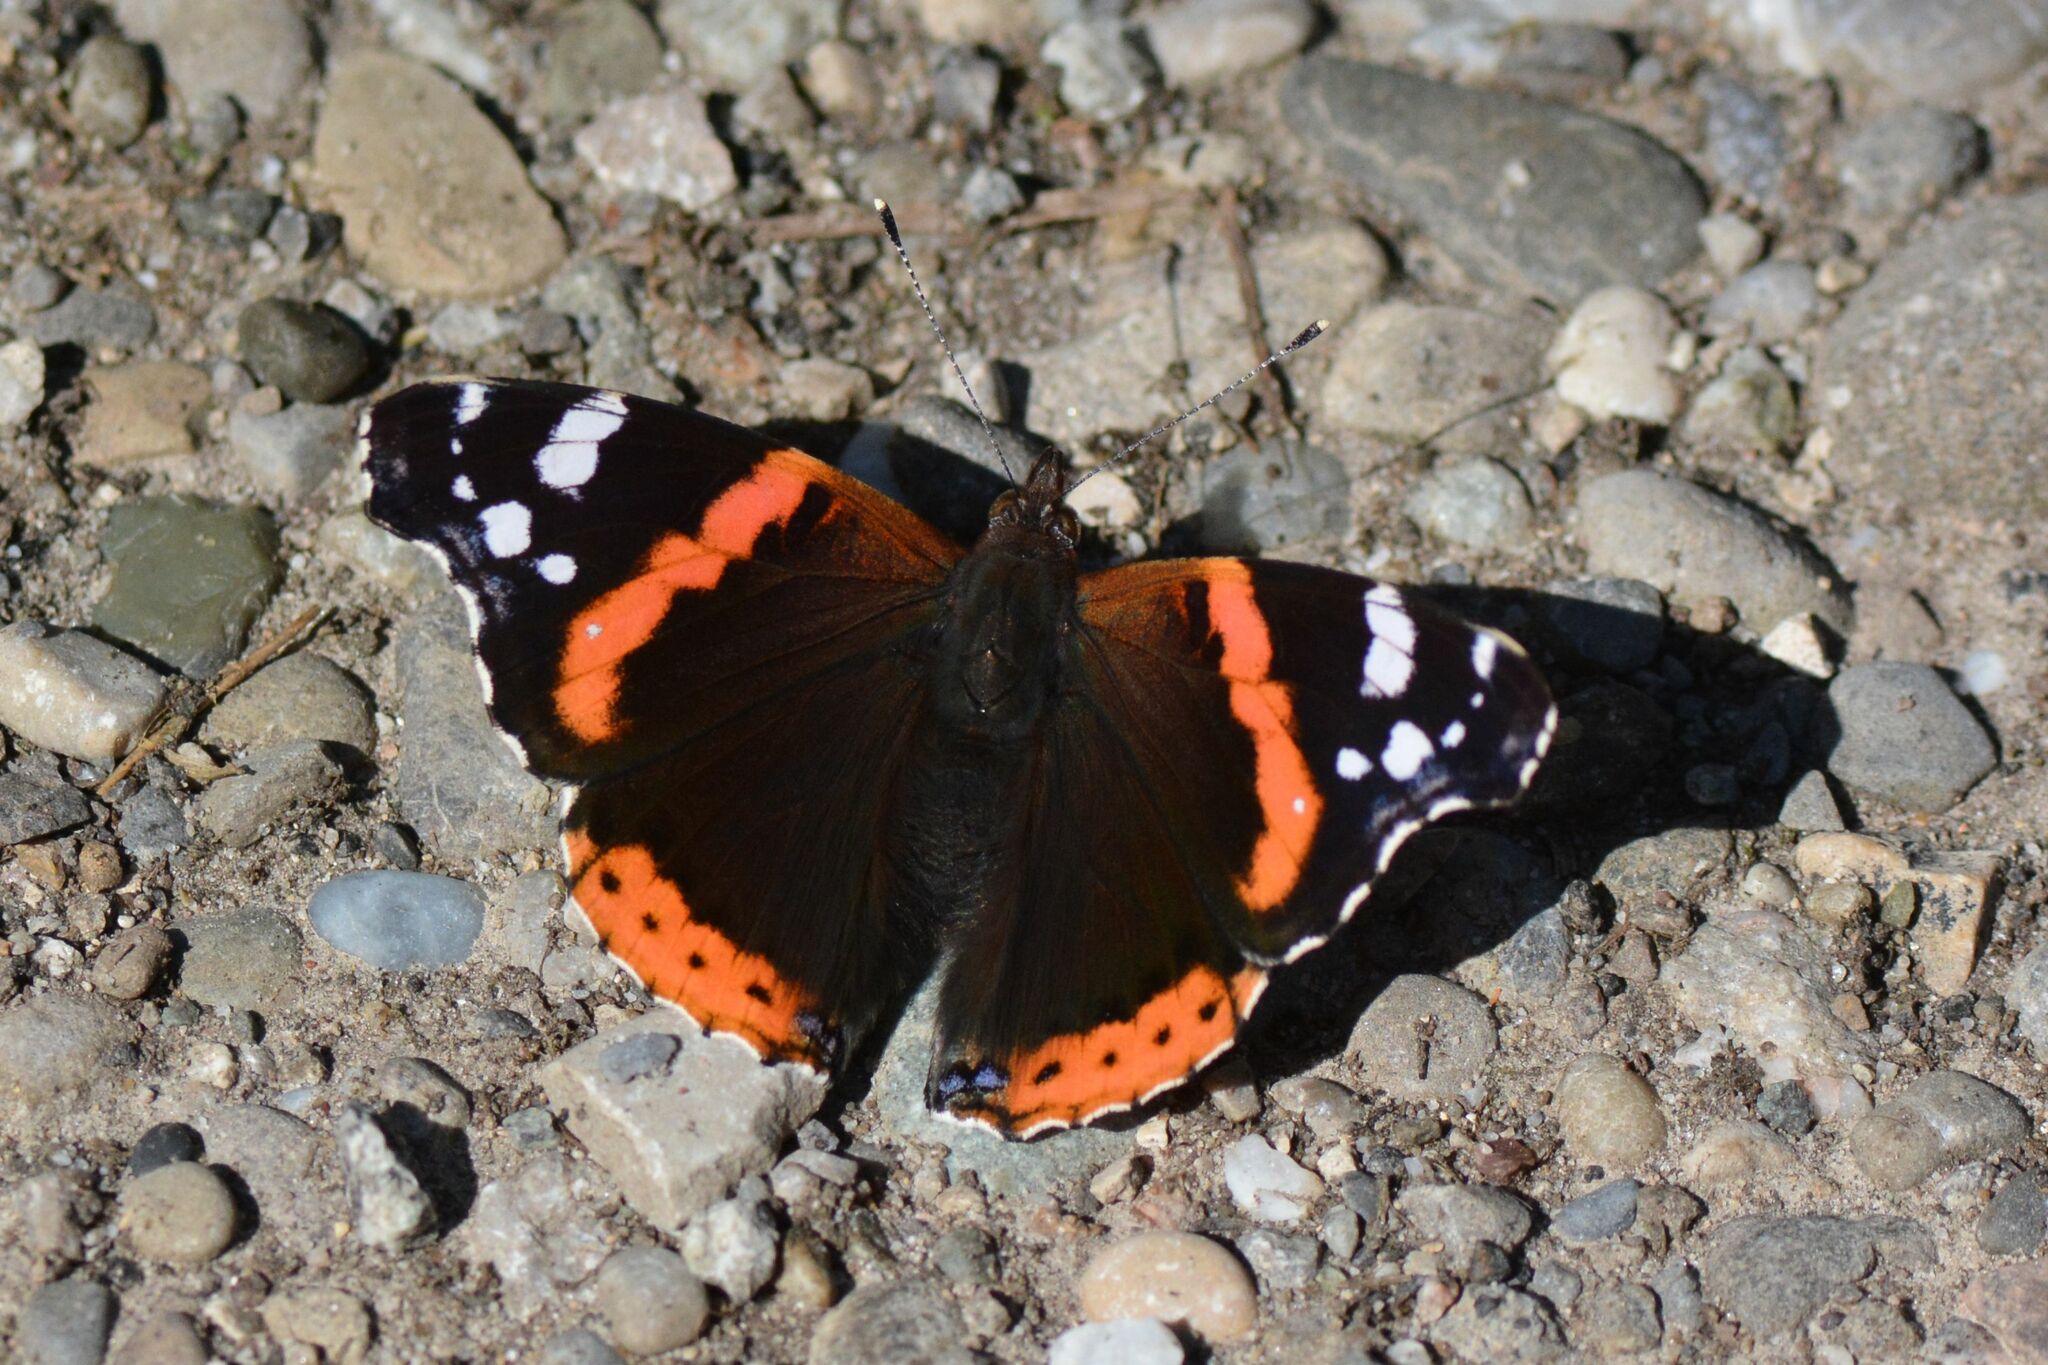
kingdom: Animalia
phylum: Arthropoda
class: Insecta
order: Lepidoptera
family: Nymphalidae
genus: Vanessa
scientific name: Vanessa atalanta
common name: Red admiral
